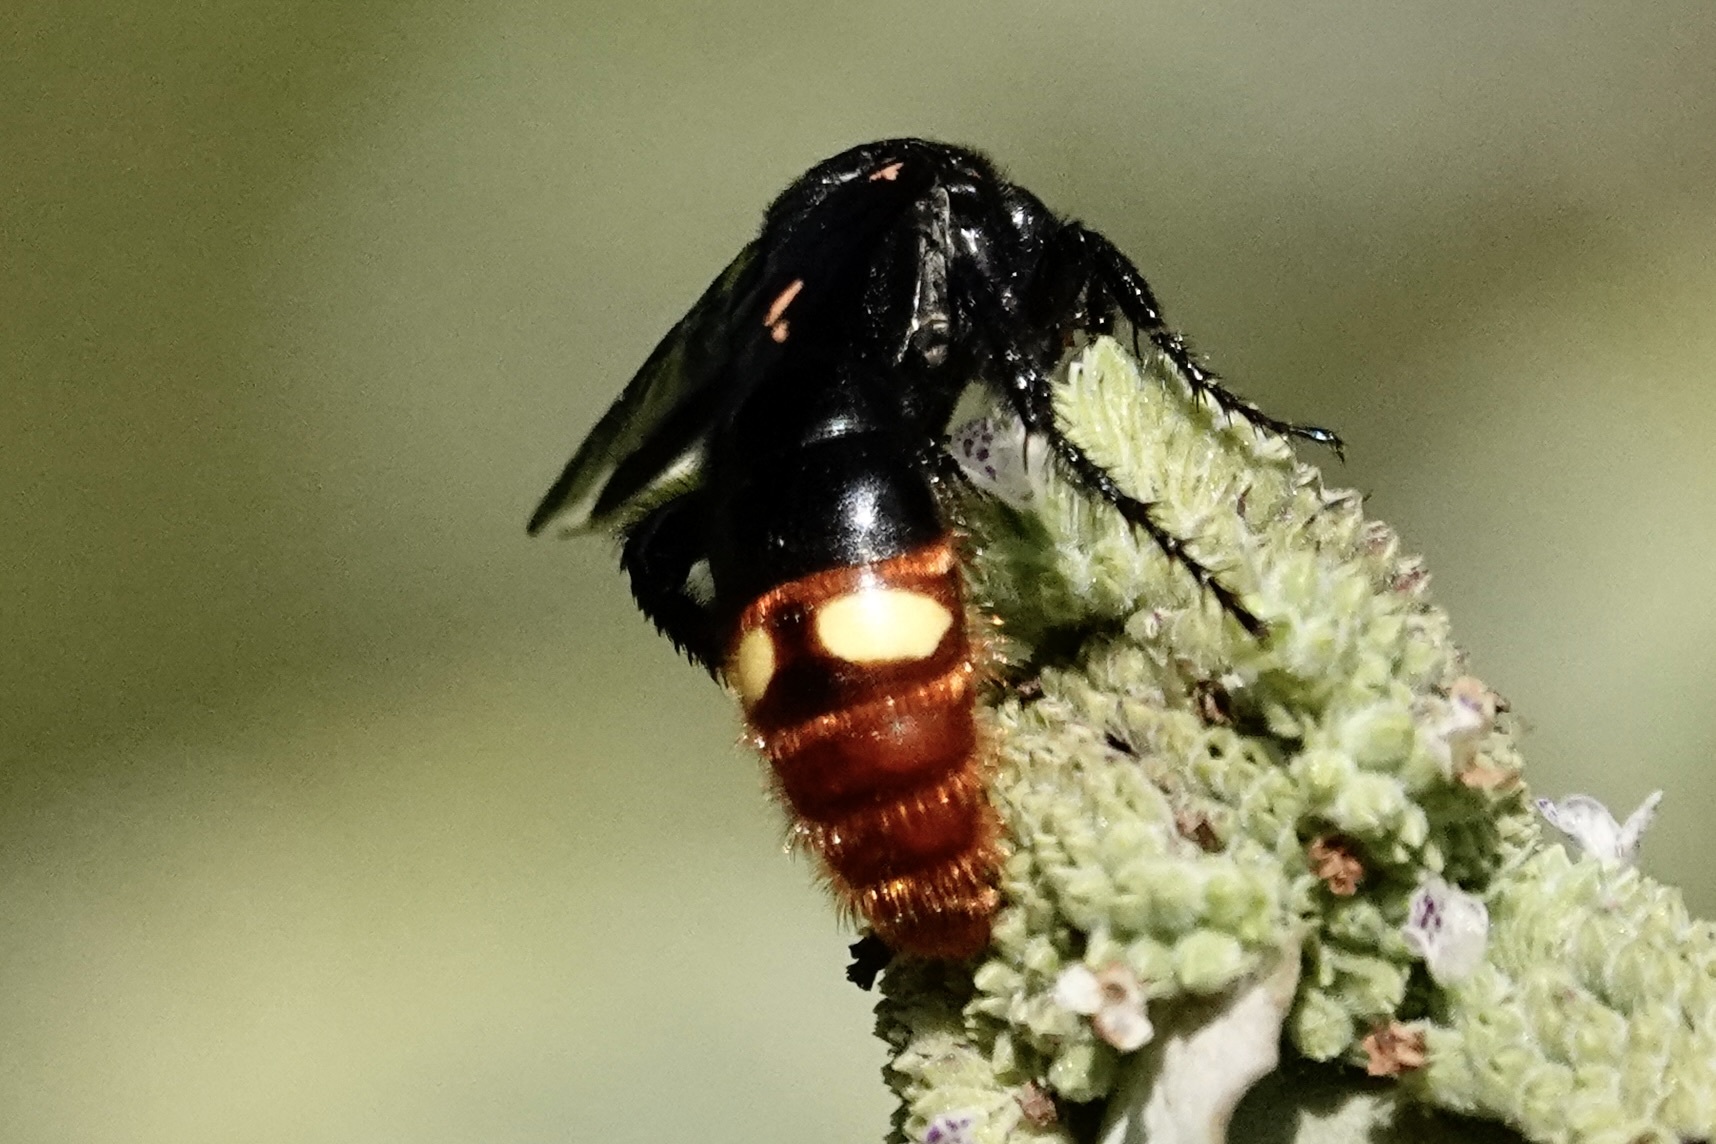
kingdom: Animalia
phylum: Arthropoda
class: Insecta
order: Hymenoptera
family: Scoliidae
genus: Scolia
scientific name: Scolia dubia
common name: Blue-winged scoliid wasp
